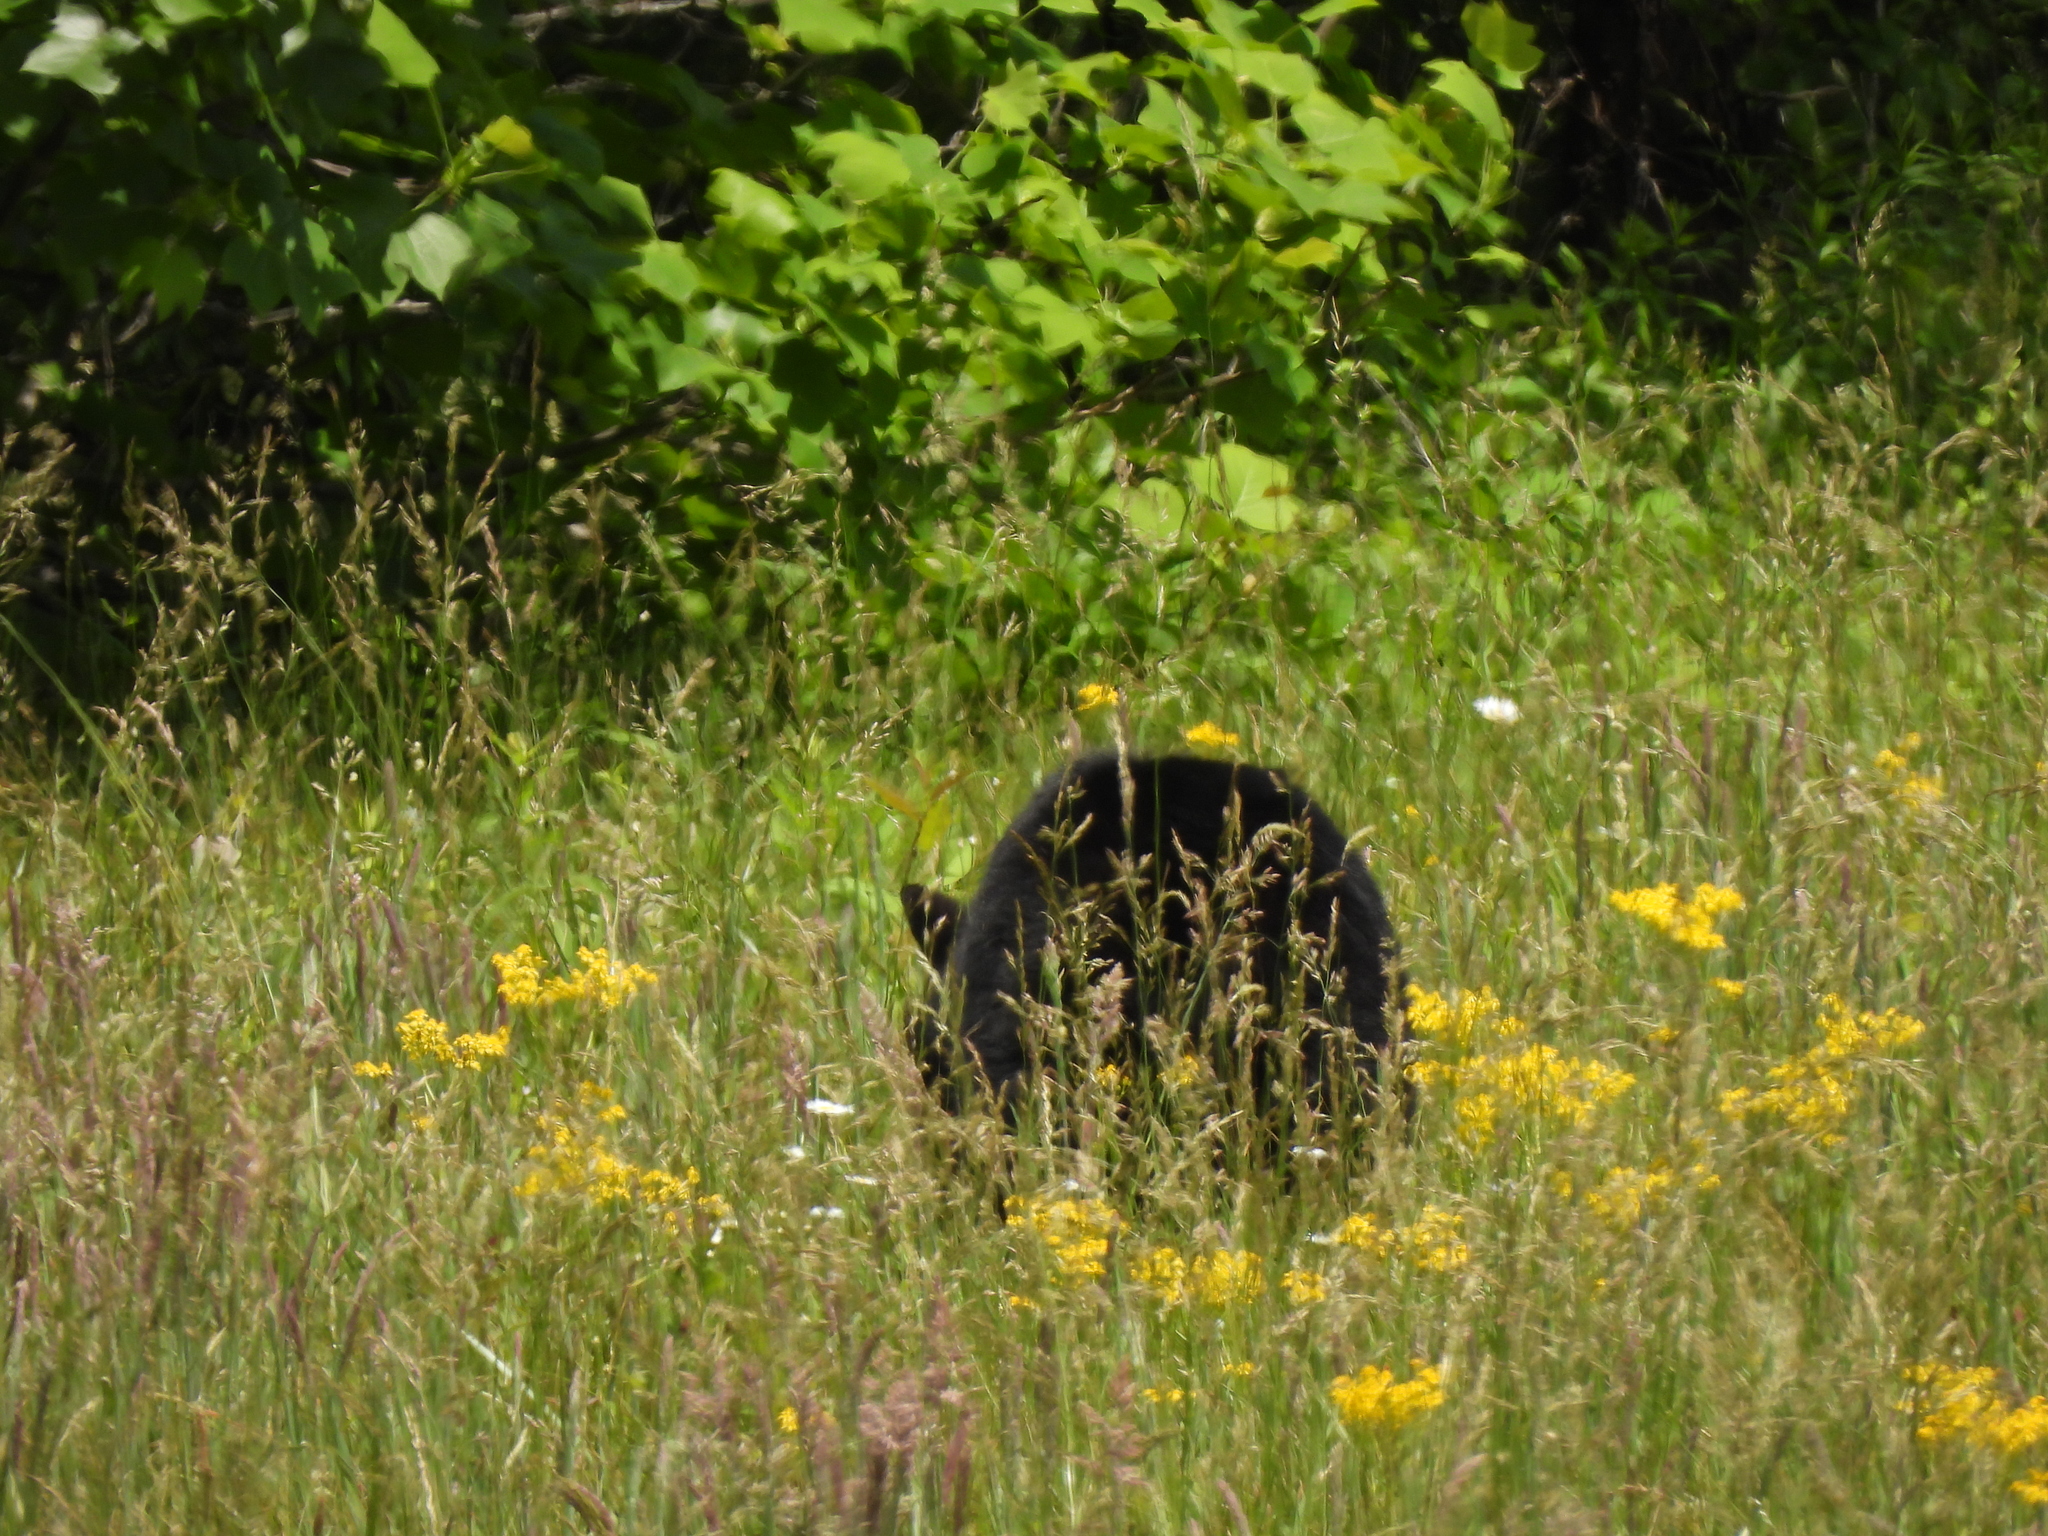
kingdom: Animalia
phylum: Chordata
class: Mammalia
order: Carnivora
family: Ursidae
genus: Ursus
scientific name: Ursus americanus
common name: American black bear
